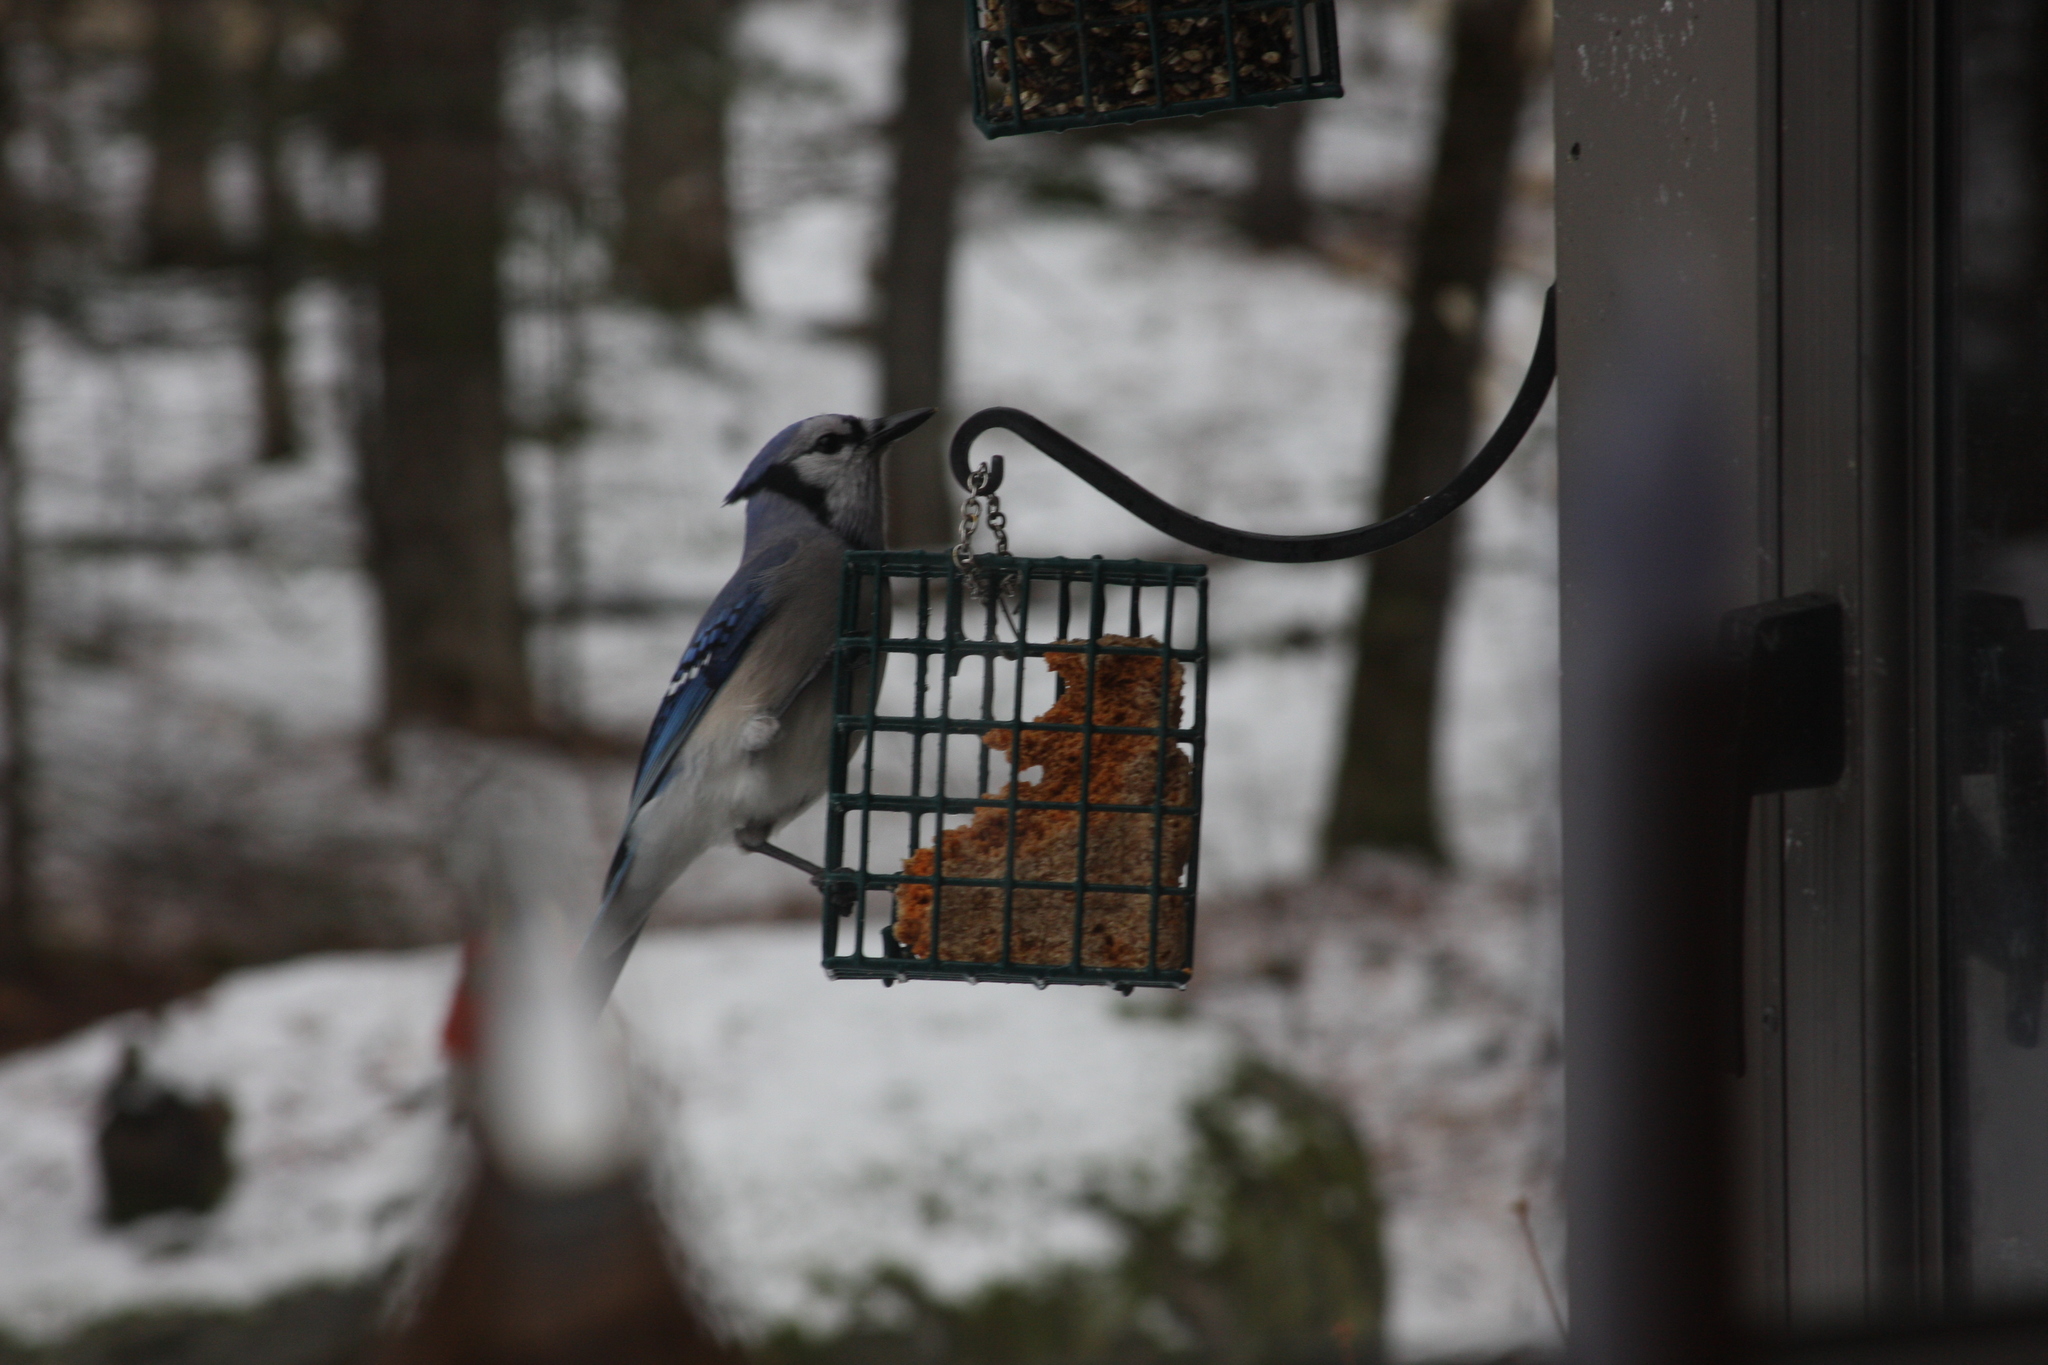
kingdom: Animalia
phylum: Chordata
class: Aves
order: Passeriformes
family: Corvidae
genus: Cyanocitta
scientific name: Cyanocitta cristata
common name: Blue jay
